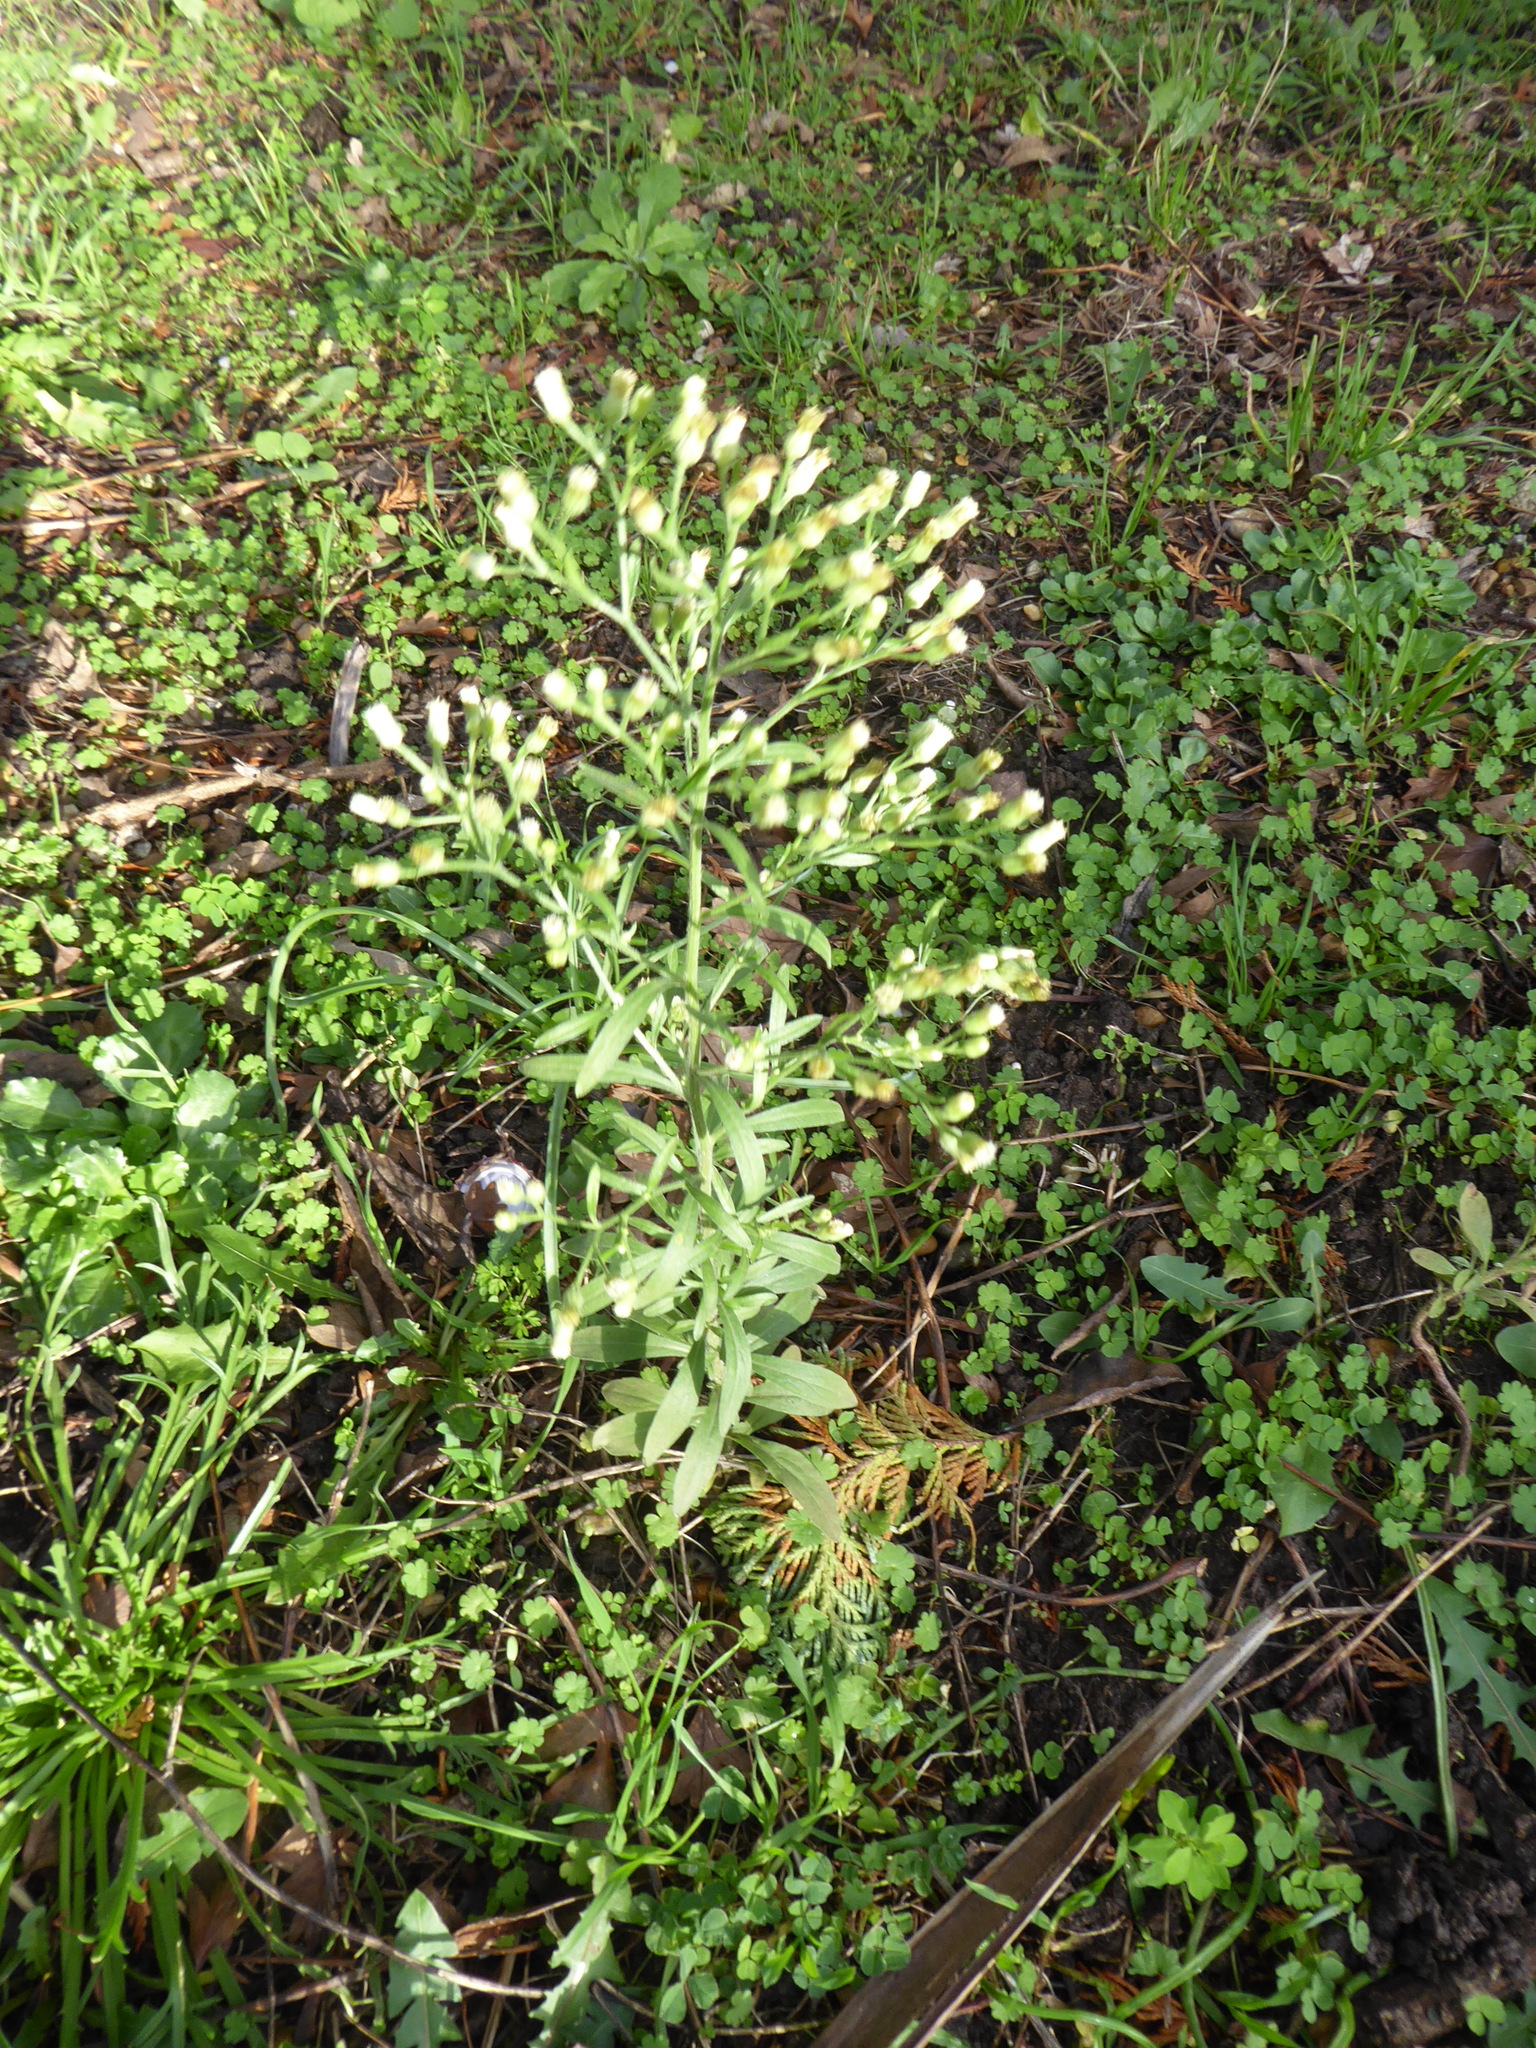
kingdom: Plantae
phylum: Tracheophyta
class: Magnoliopsida
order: Asterales
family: Asteraceae
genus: Erigeron
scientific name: Erigeron sumatrensis
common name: Daisy
